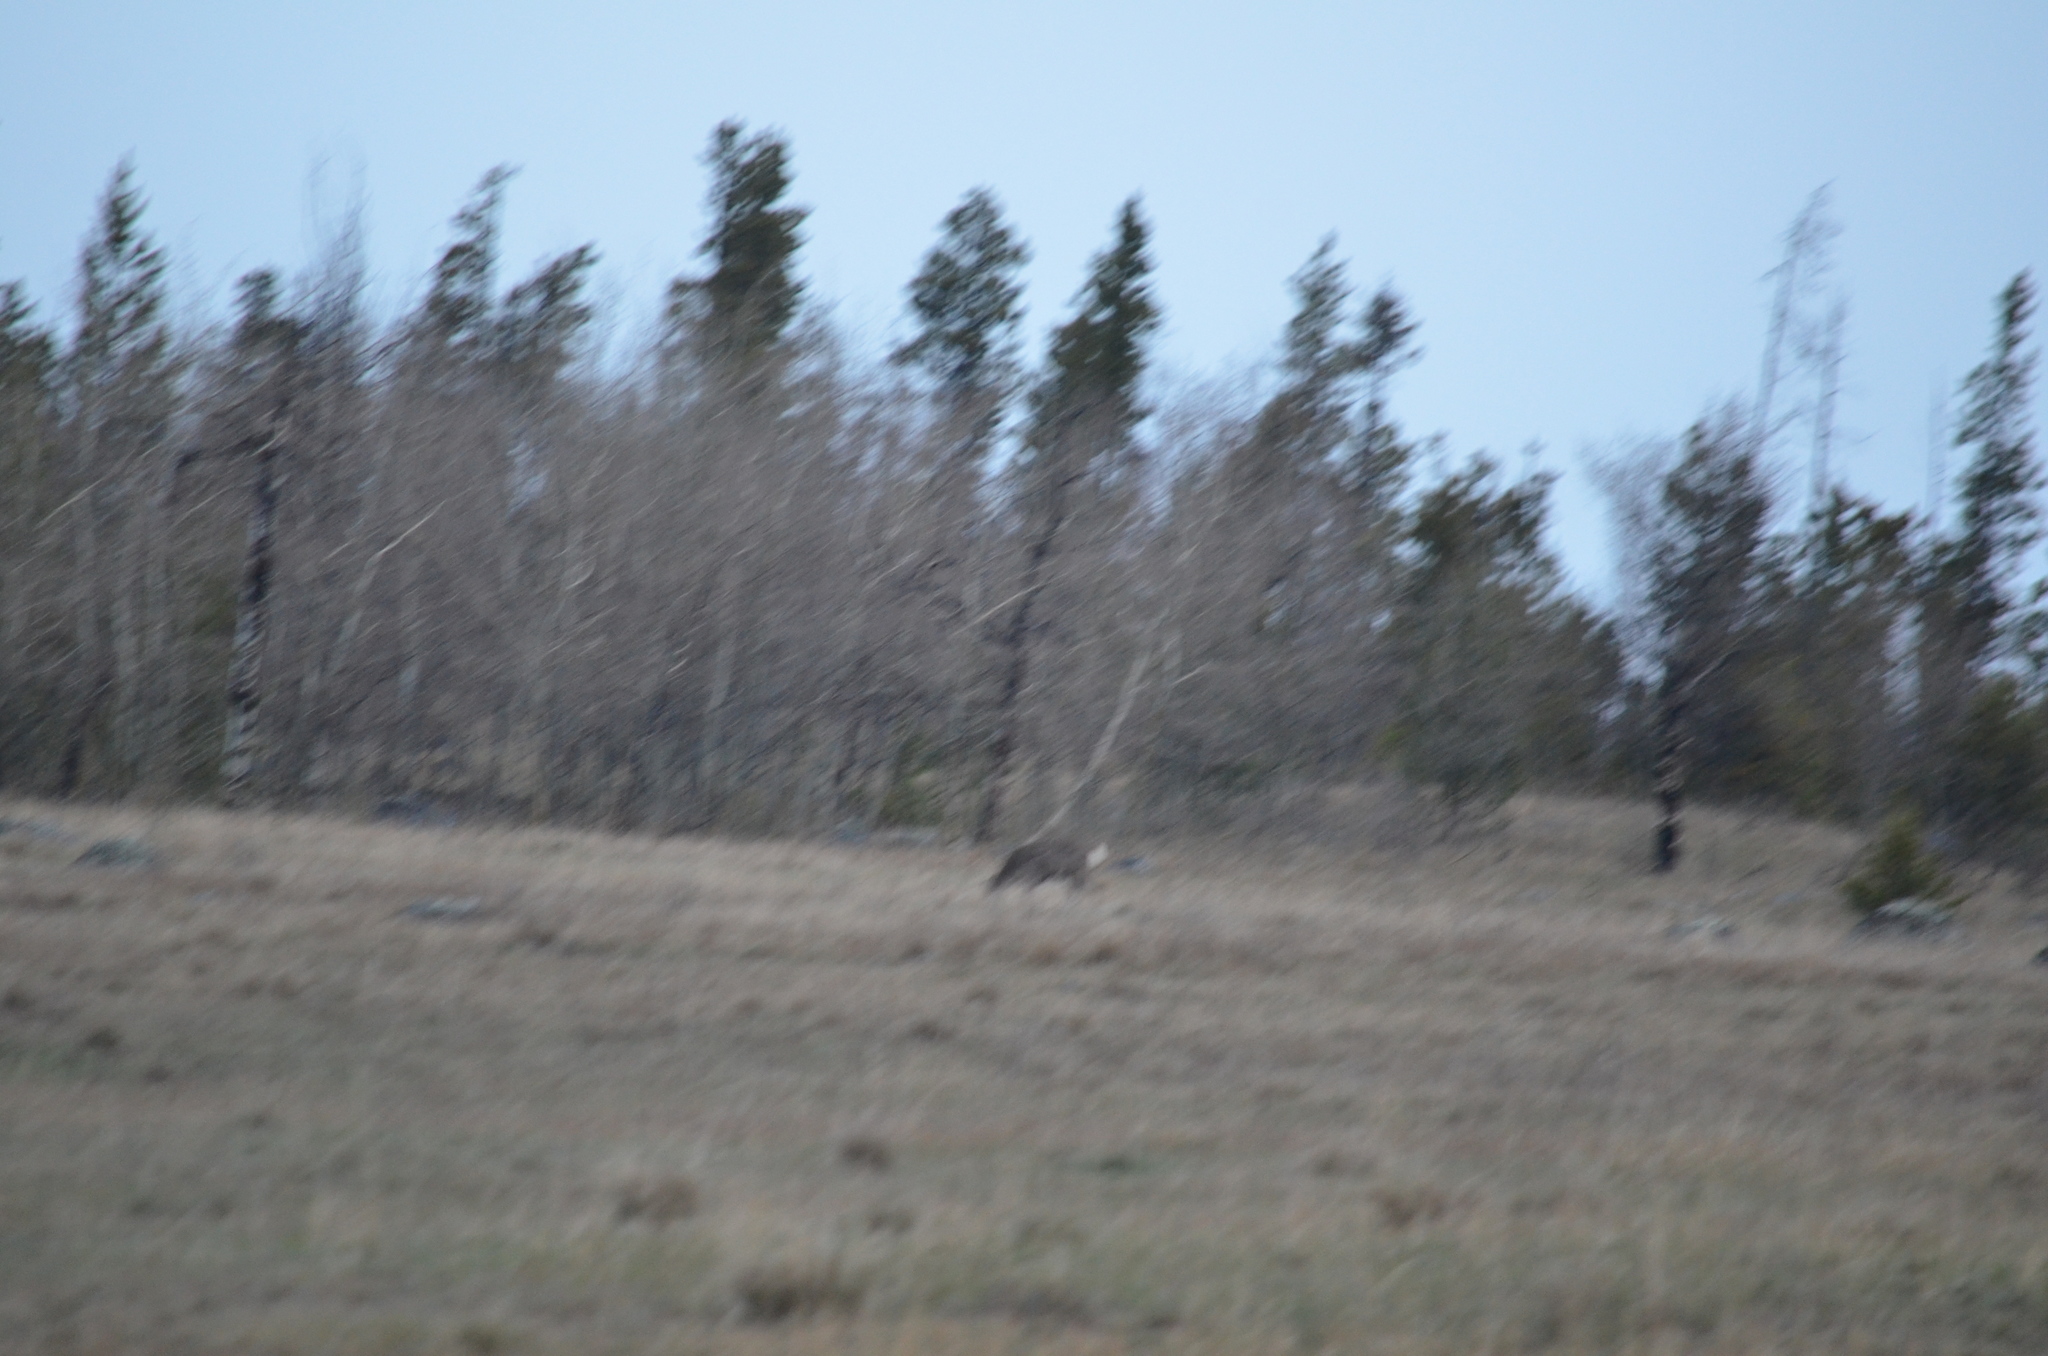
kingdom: Animalia
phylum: Chordata
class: Mammalia
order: Artiodactyla
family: Cervidae
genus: Odocoileus
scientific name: Odocoileus hemionus
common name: Mule deer
